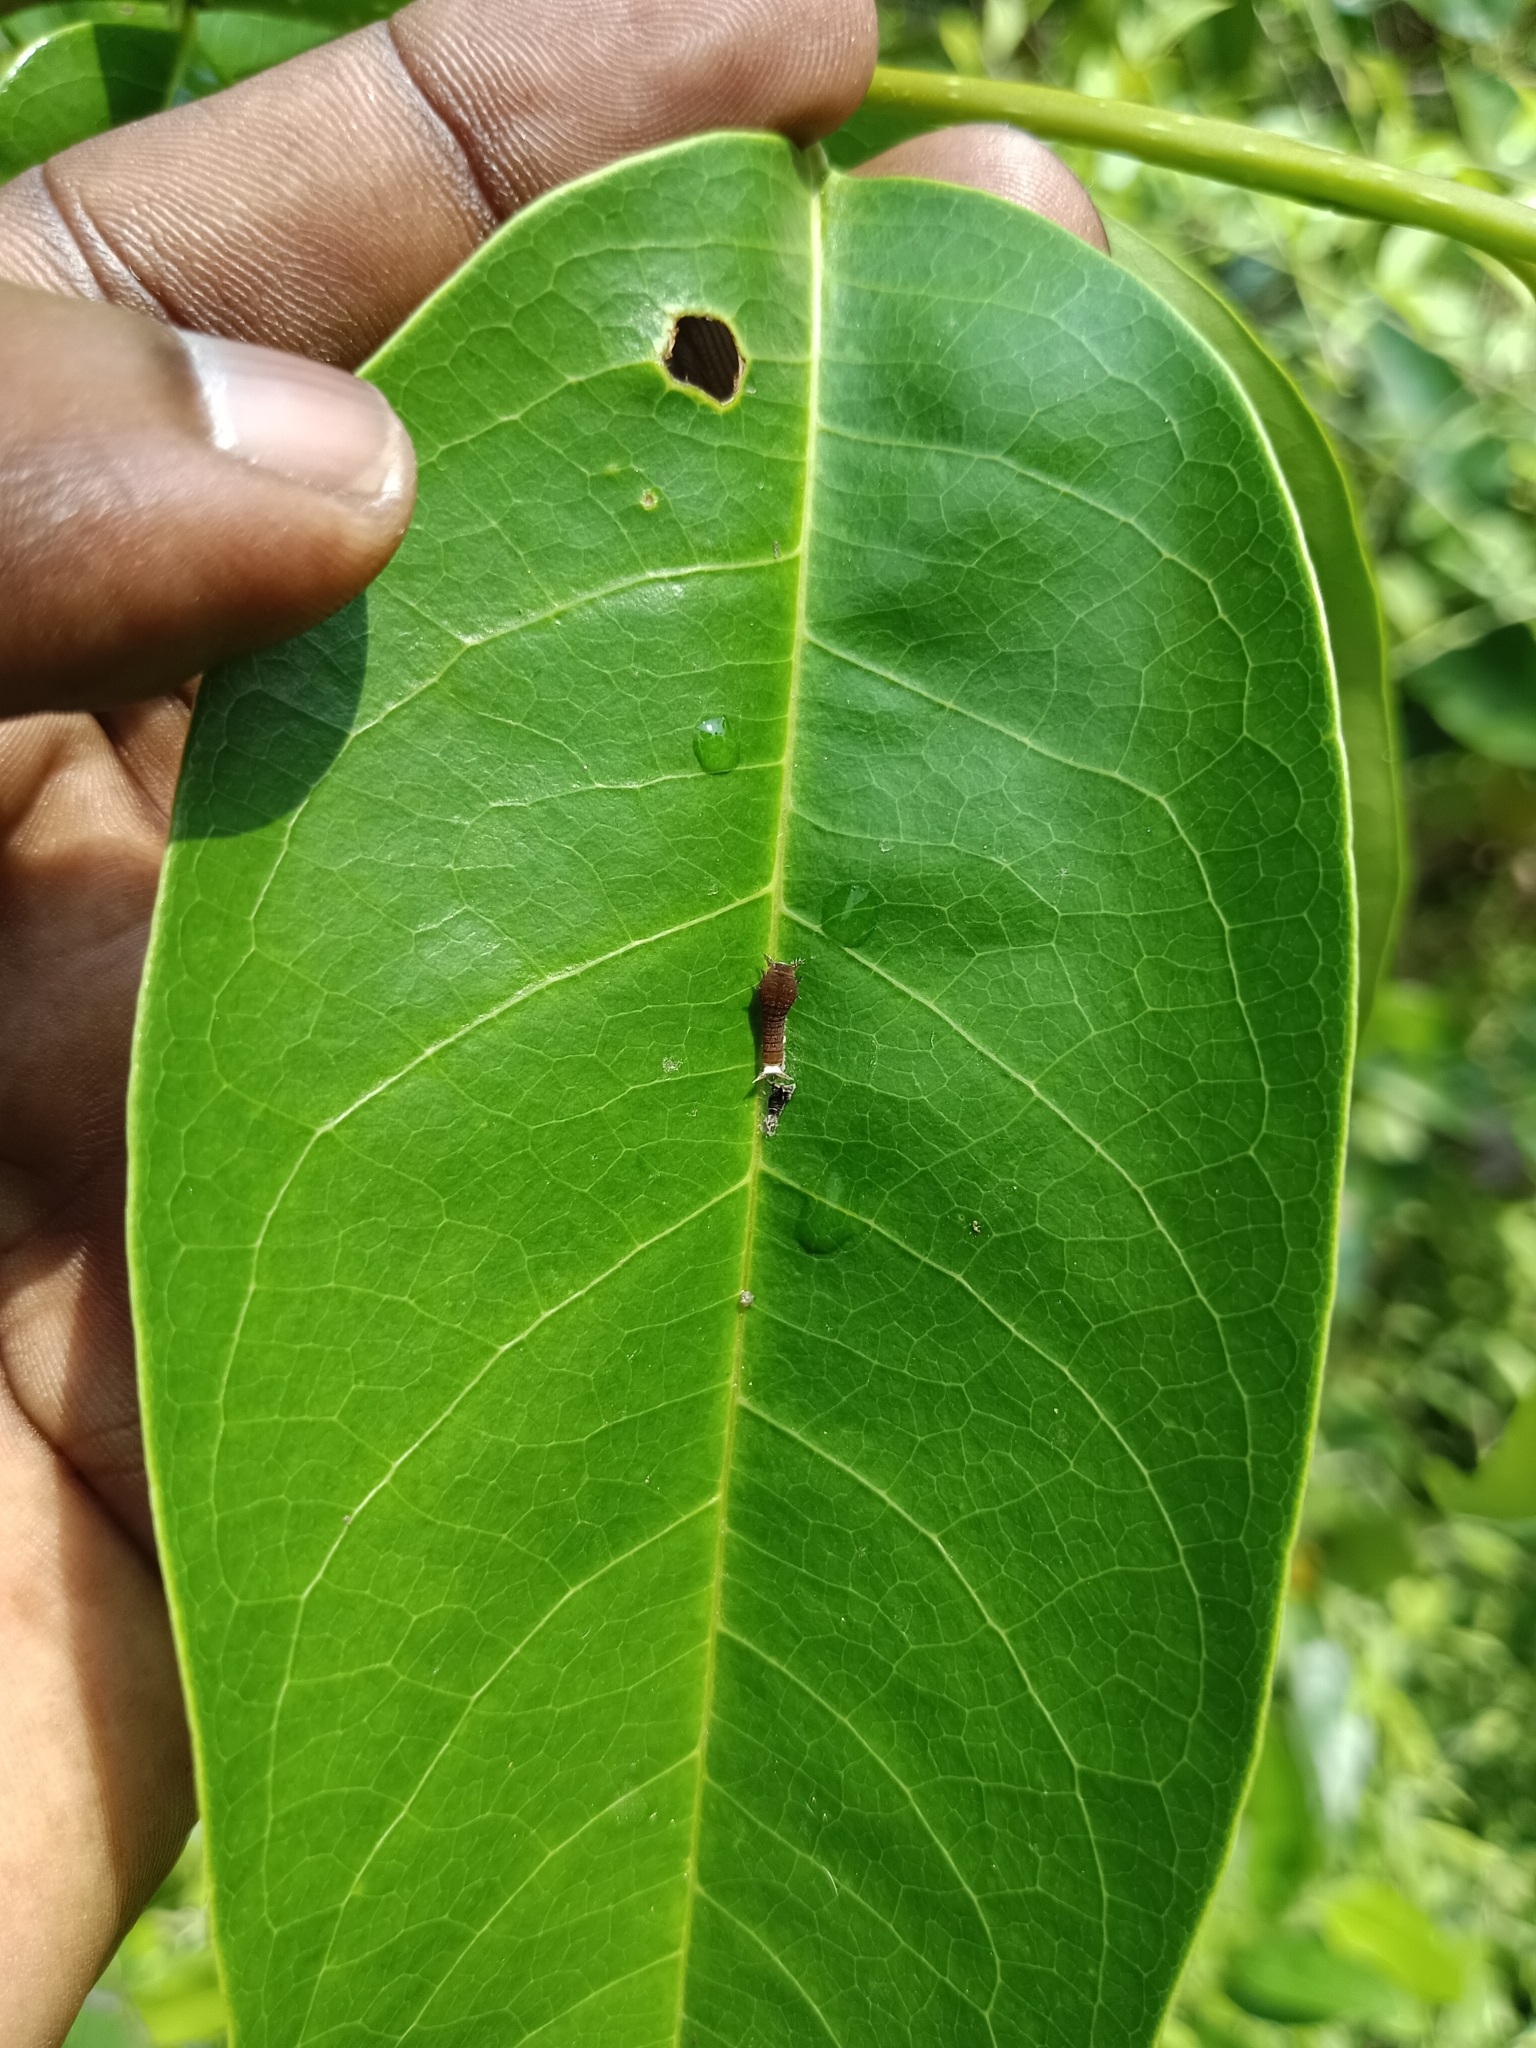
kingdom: Animalia
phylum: Arthropoda
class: Insecta
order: Lepidoptera
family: Papilionidae
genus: Graphium
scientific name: Graphium doson
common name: Common jay
